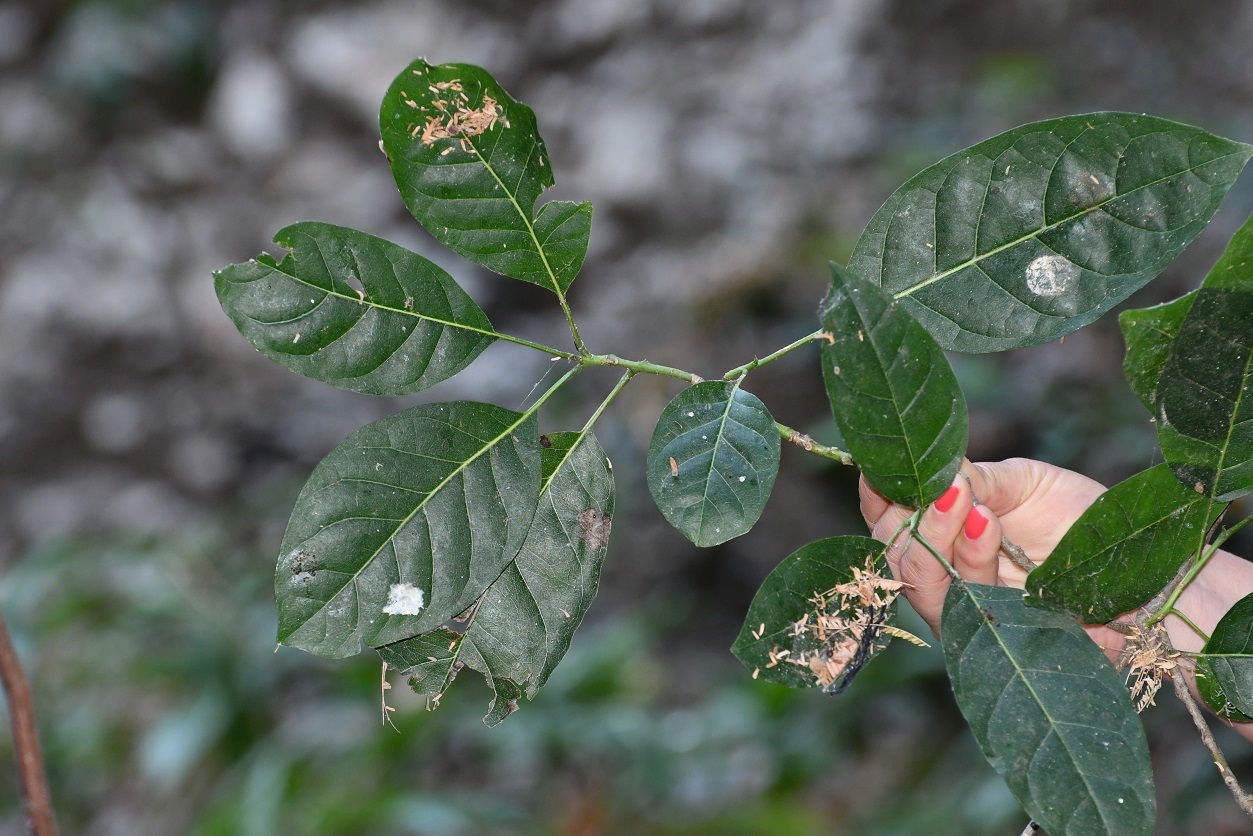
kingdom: Plantae
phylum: Tracheophyta
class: Magnoliopsida
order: Boraginales
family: Ehretiaceae
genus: Bourreria
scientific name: Bourreria huanita
